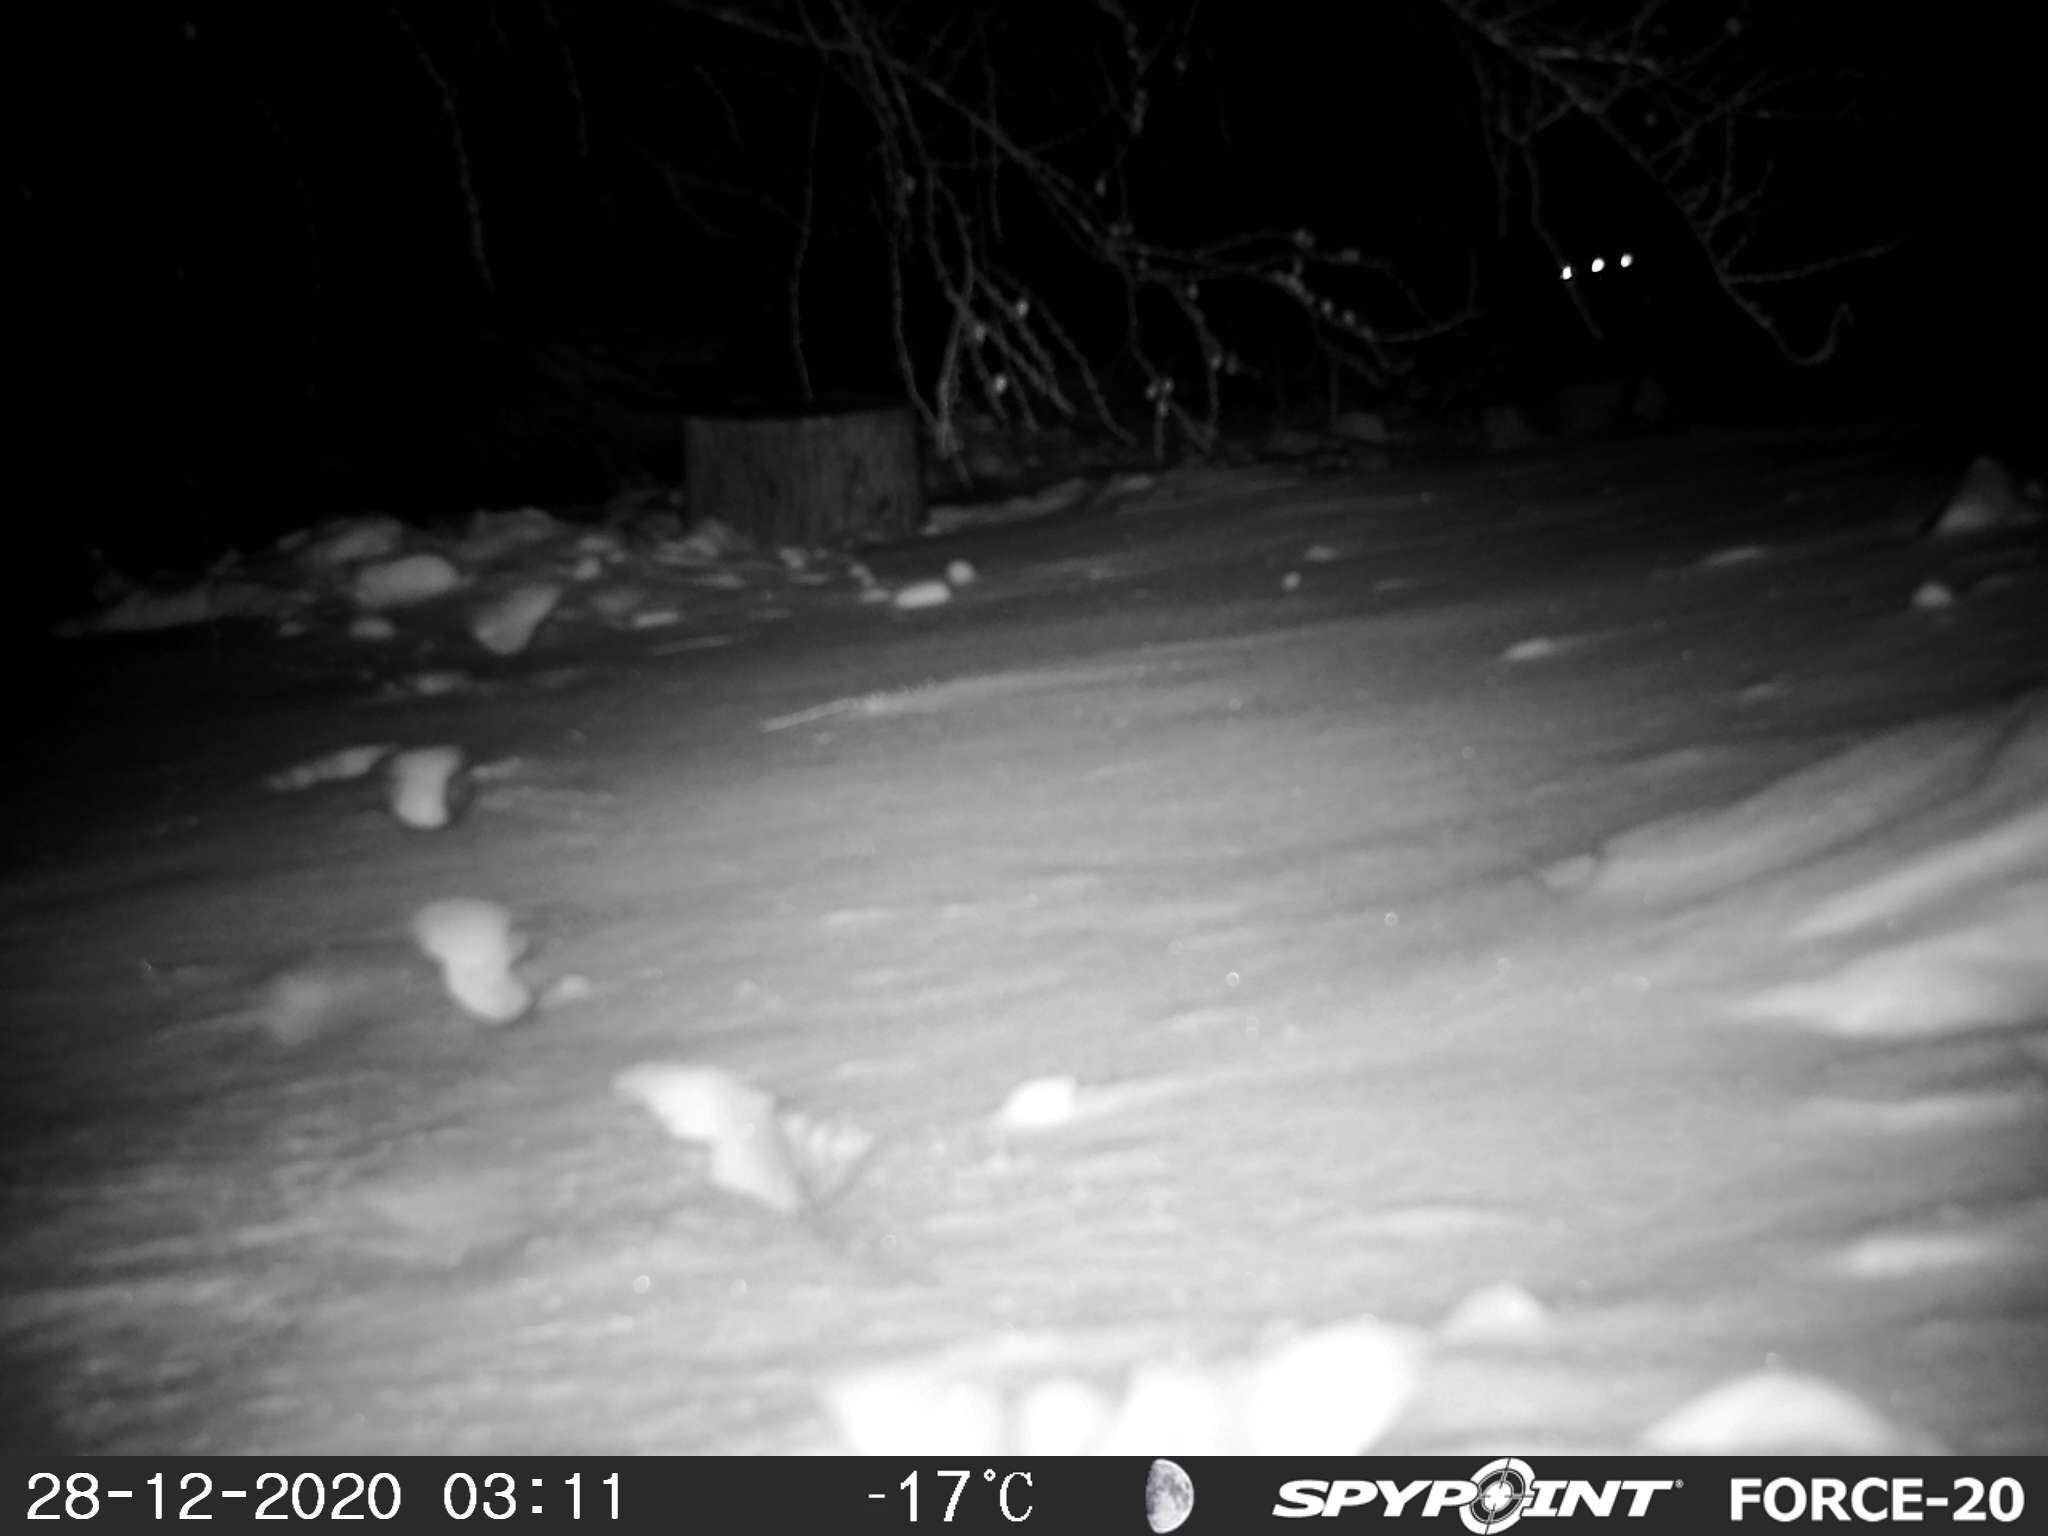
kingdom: Animalia
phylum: Chordata
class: Mammalia
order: Carnivora
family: Canidae
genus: Vulpes
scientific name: Vulpes vulpes
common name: Red fox
